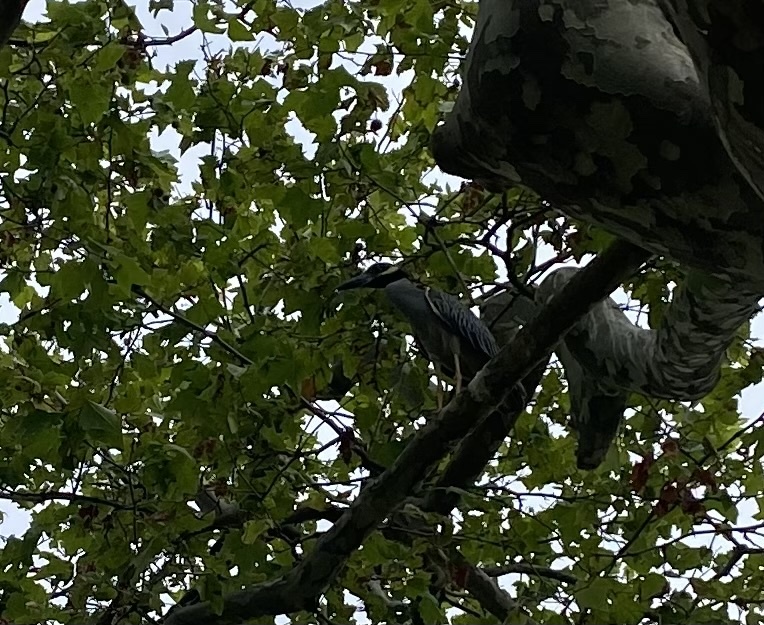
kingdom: Animalia
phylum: Chordata
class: Aves
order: Pelecaniformes
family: Ardeidae
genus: Nyctanassa
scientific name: Nyctanassa violacea
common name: Yellow-crowned night heron
